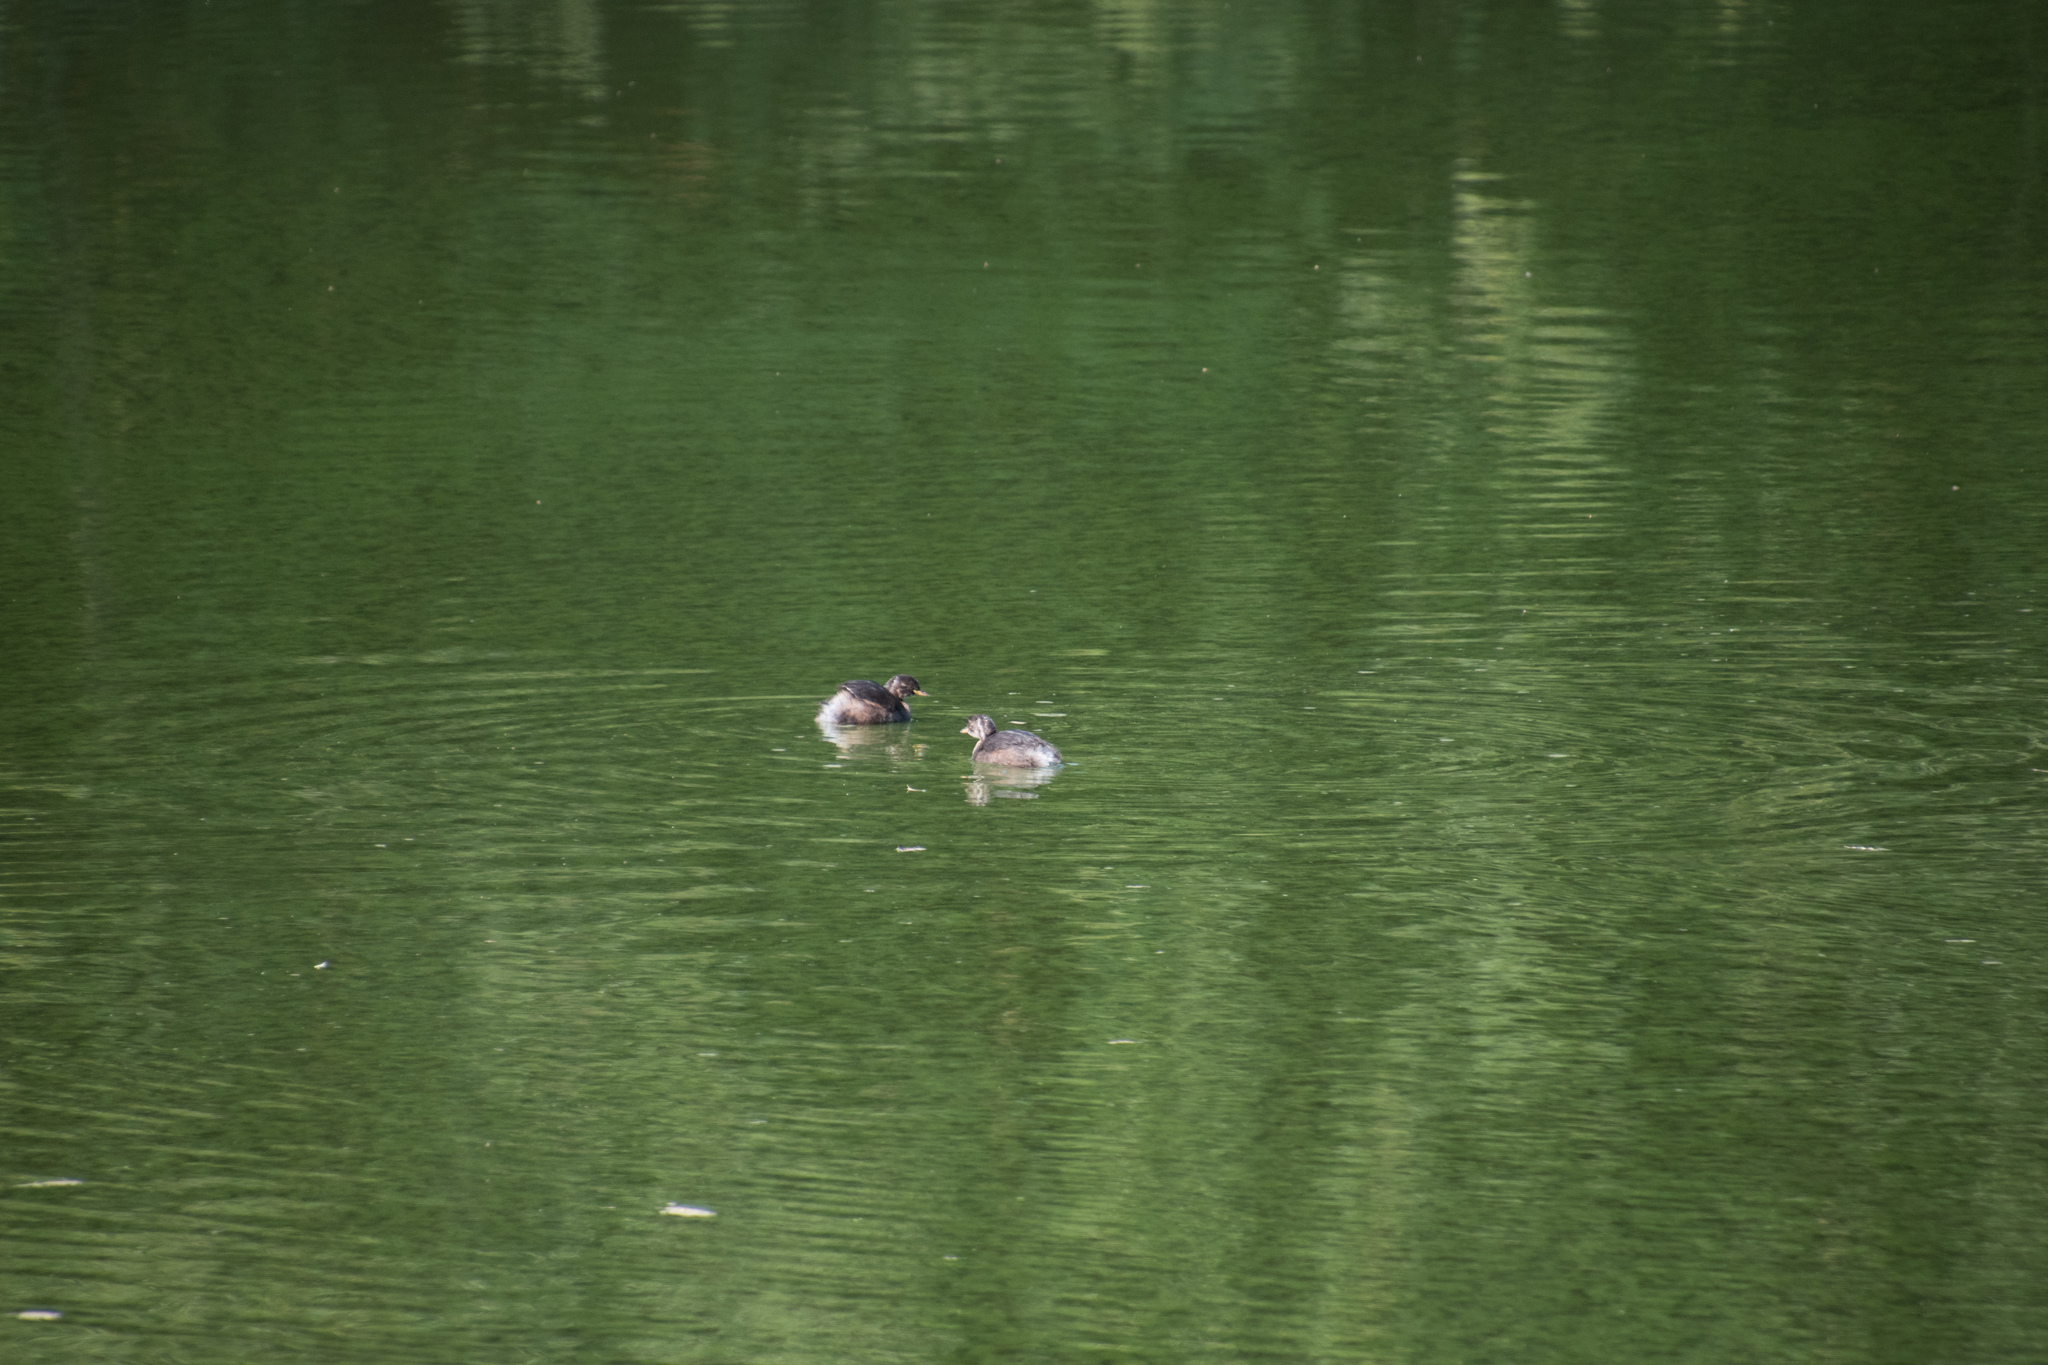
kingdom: Animalia
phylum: Chordata
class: Aves
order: Podicipediformes
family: Podicipedidae
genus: Tachybaptus
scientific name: Tachybaptus ruficollis
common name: Little grebe
